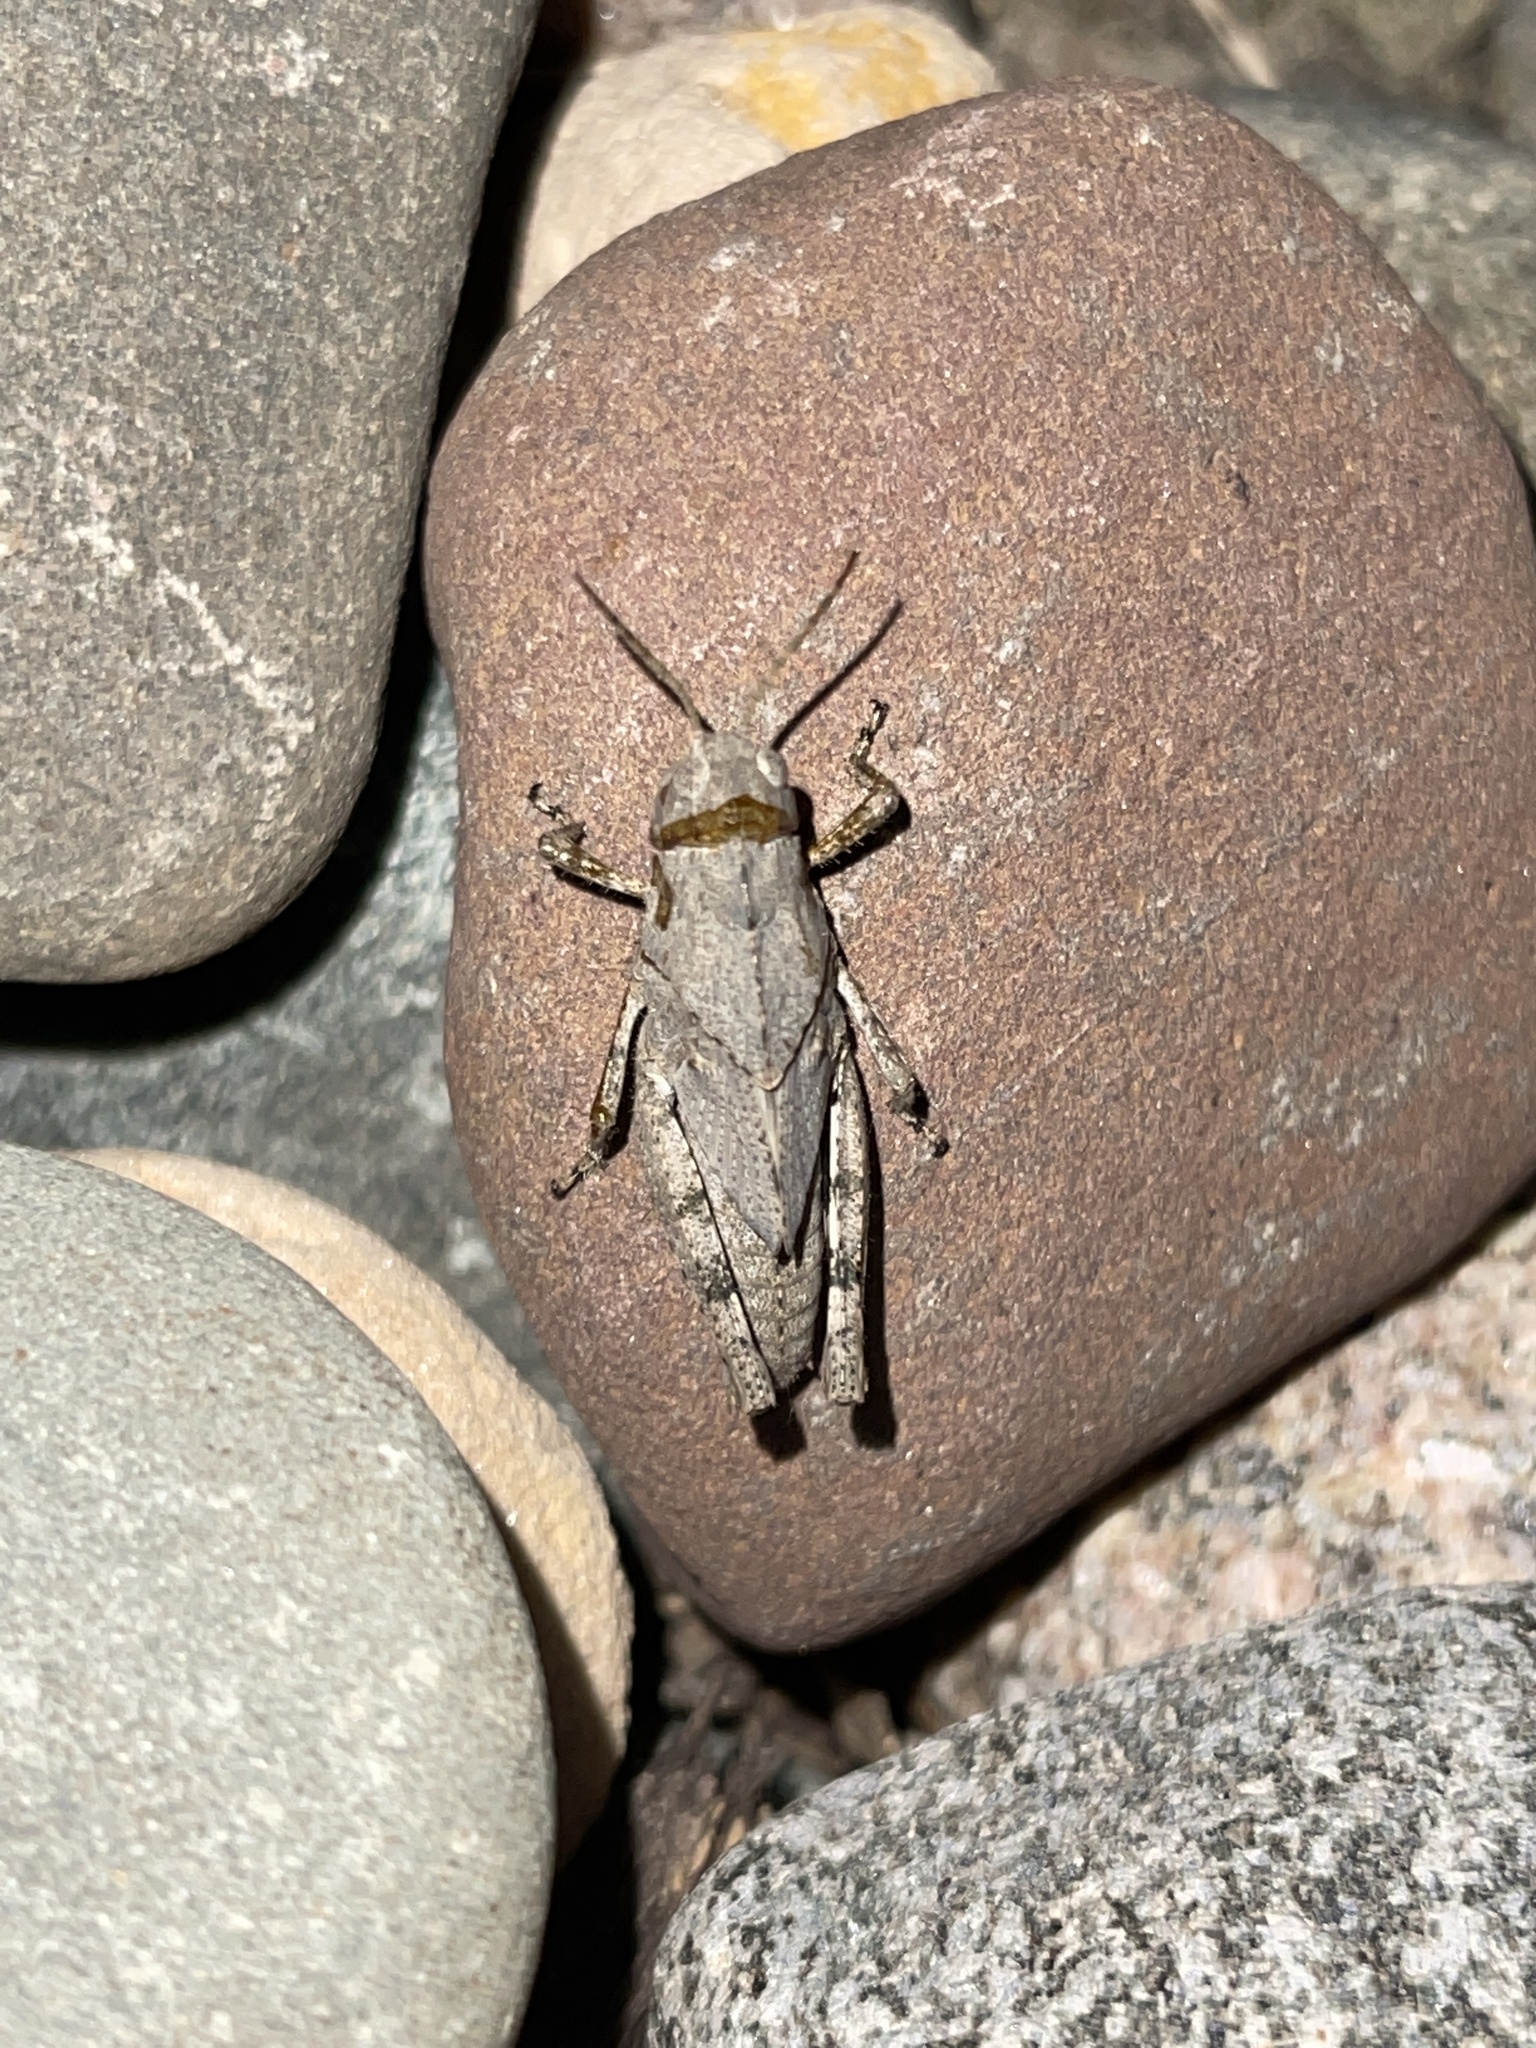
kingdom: Animalia
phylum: Arthropoda
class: Insecta
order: Orthoptera
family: Acrididae
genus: Dissosteira
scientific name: Dissosteira carolina
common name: Carolina grasshopper
